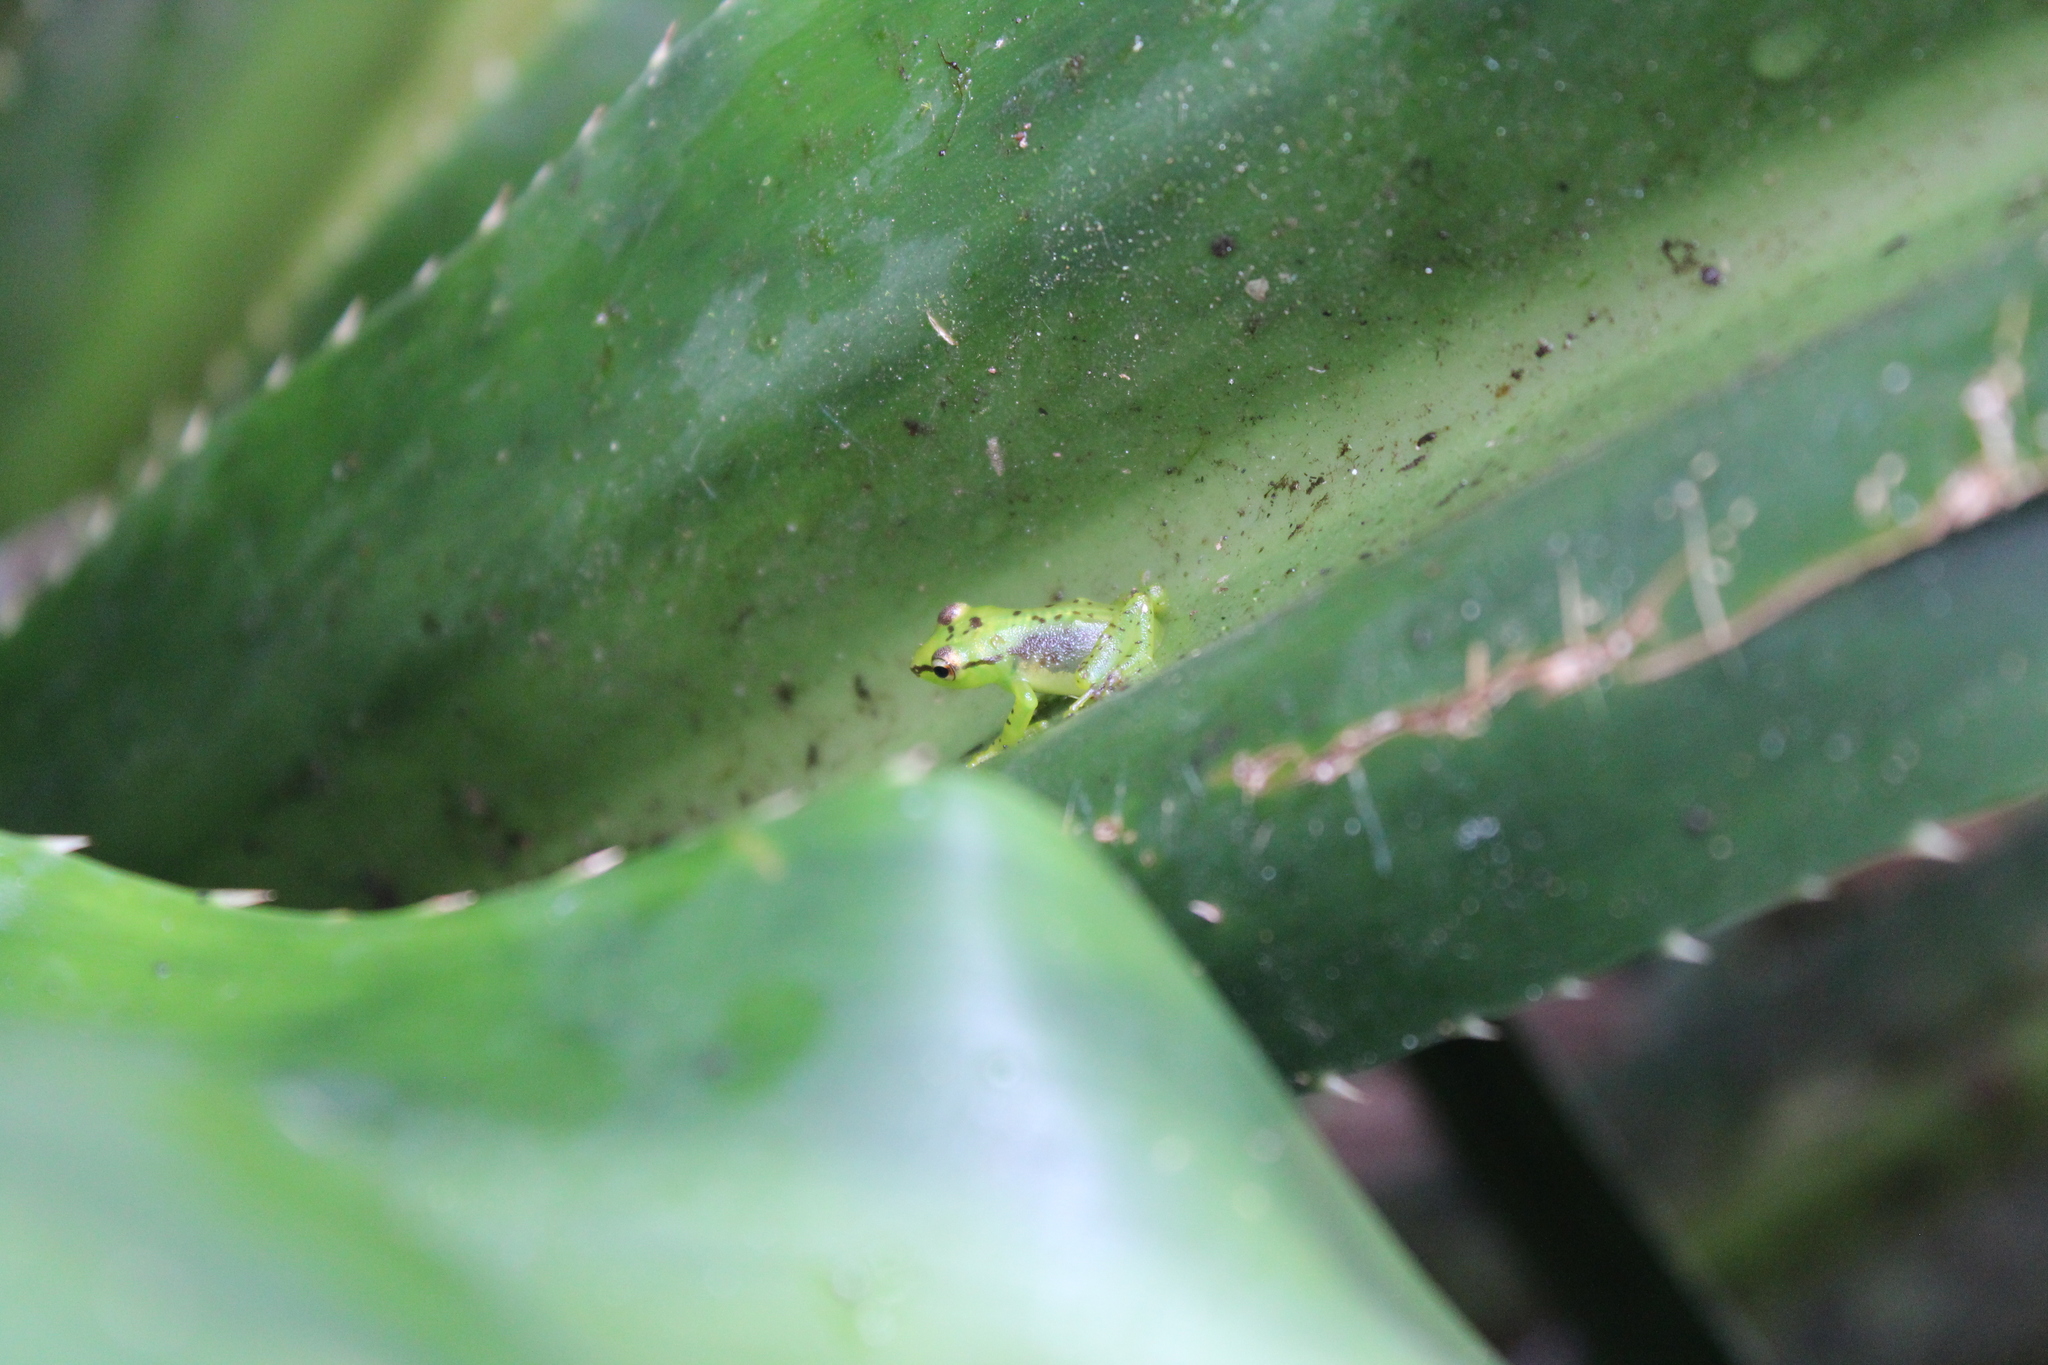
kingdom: Animalia
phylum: Chordata
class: Amphibia
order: Anura
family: Mantellidae
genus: Guibemantis
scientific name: Guibemantis pulcher
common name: Tsarafidy madagascar frog
